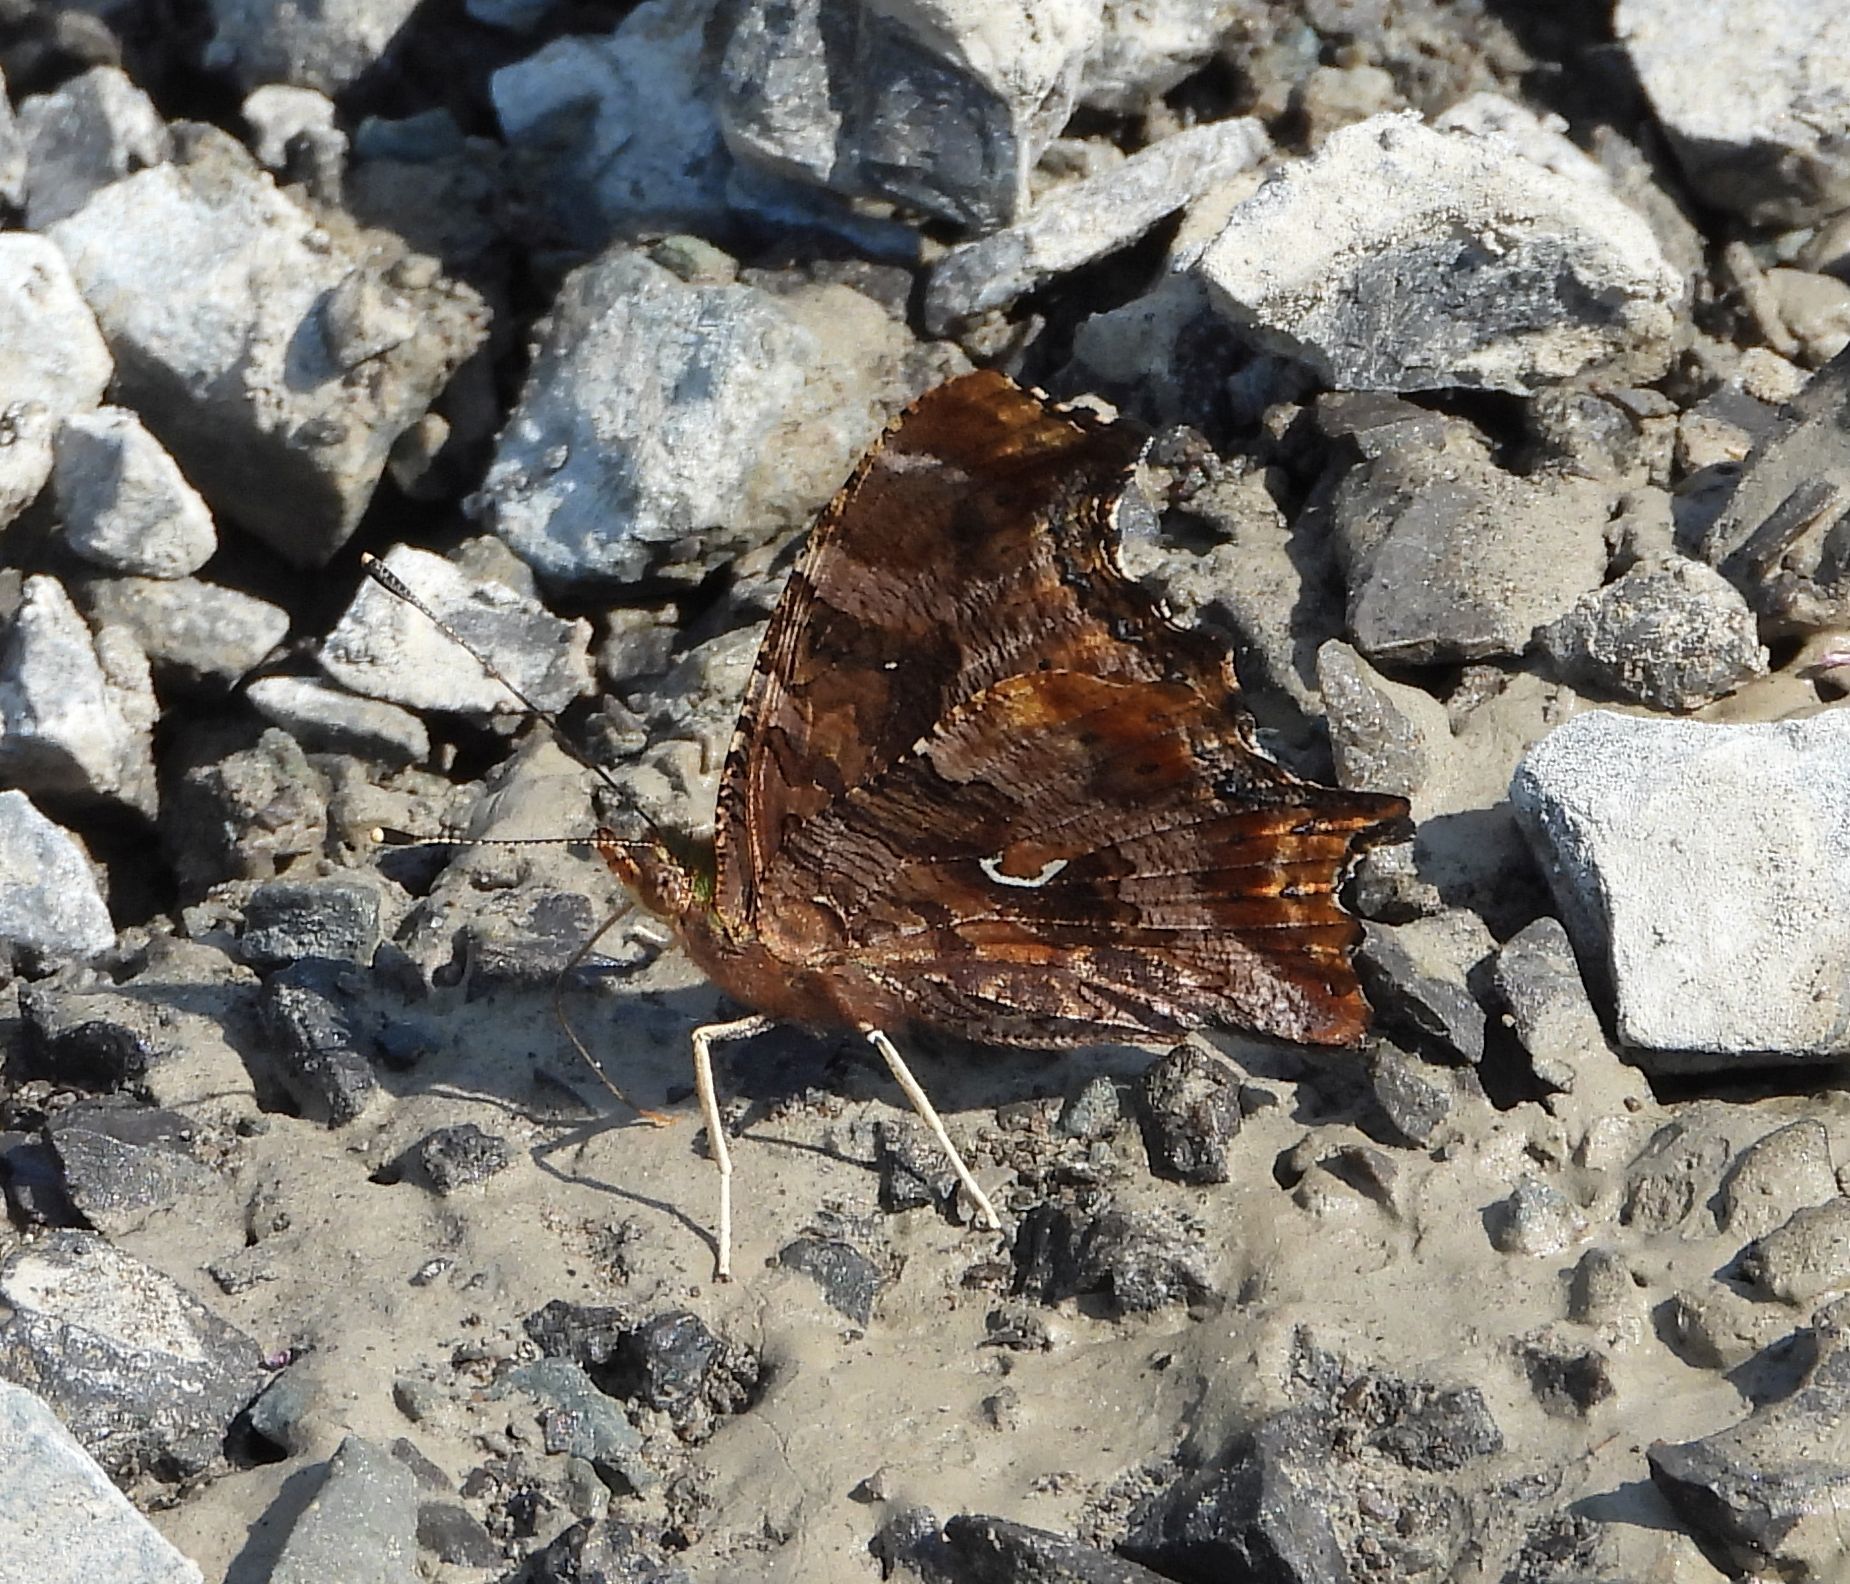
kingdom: Animalia
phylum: Arthropoda
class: Insecta
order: Lepidoptera
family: Nymphalidae
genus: Polygonia
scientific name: Polygonia comma
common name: Eastern comma
